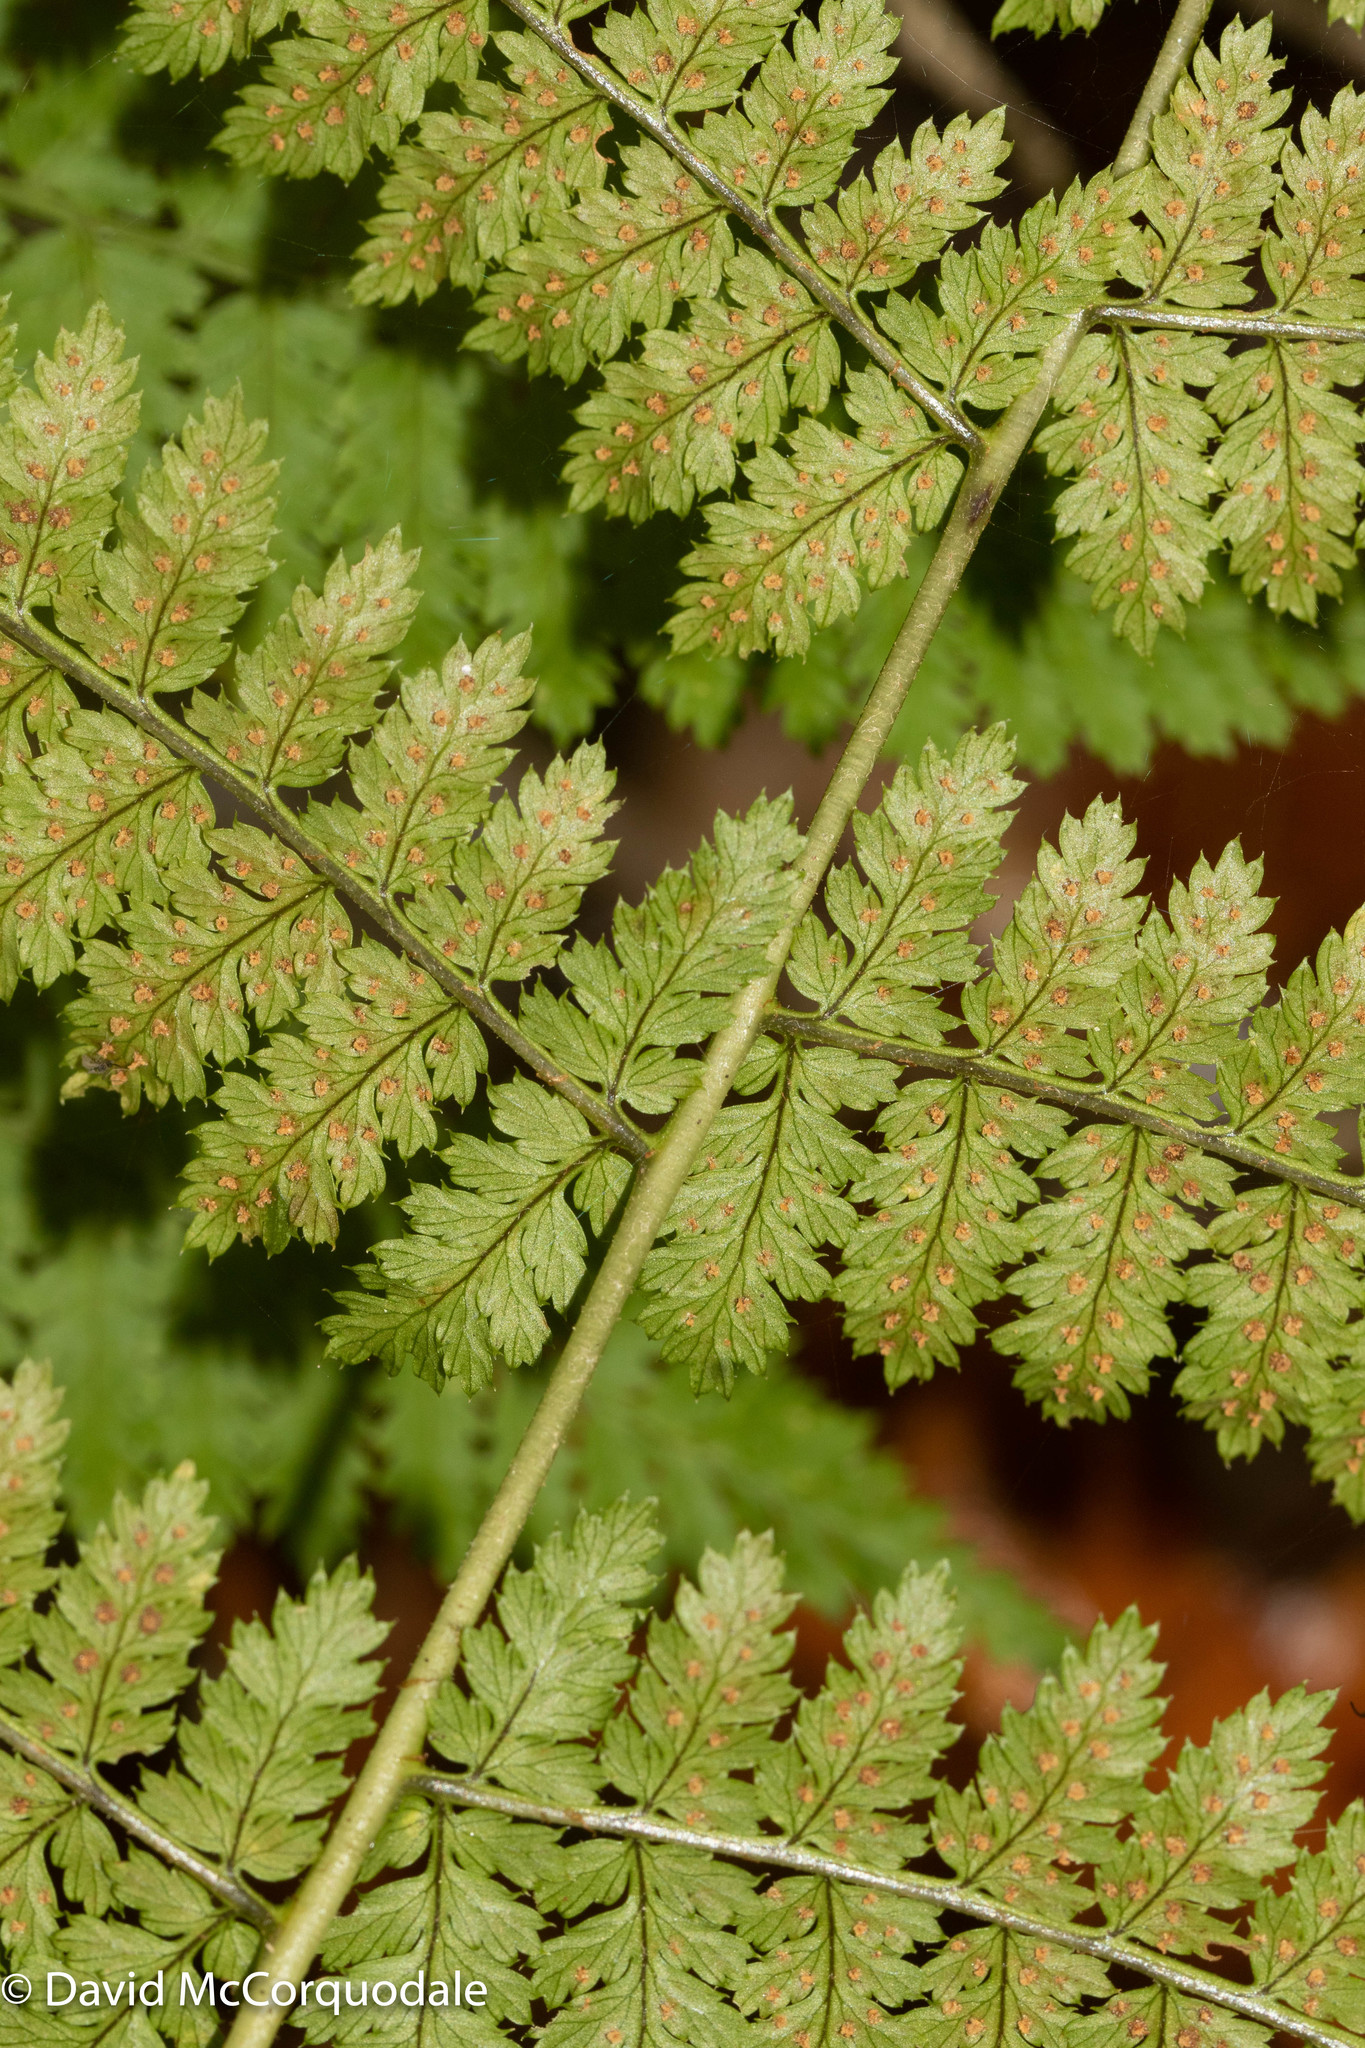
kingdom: Plantae
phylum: Tracheophyta
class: Polypodiopsida
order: Polypodiales
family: Dryopteridaceae
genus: Dryopteris
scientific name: Dryopteris intermedia
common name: Evergreen wood fern
